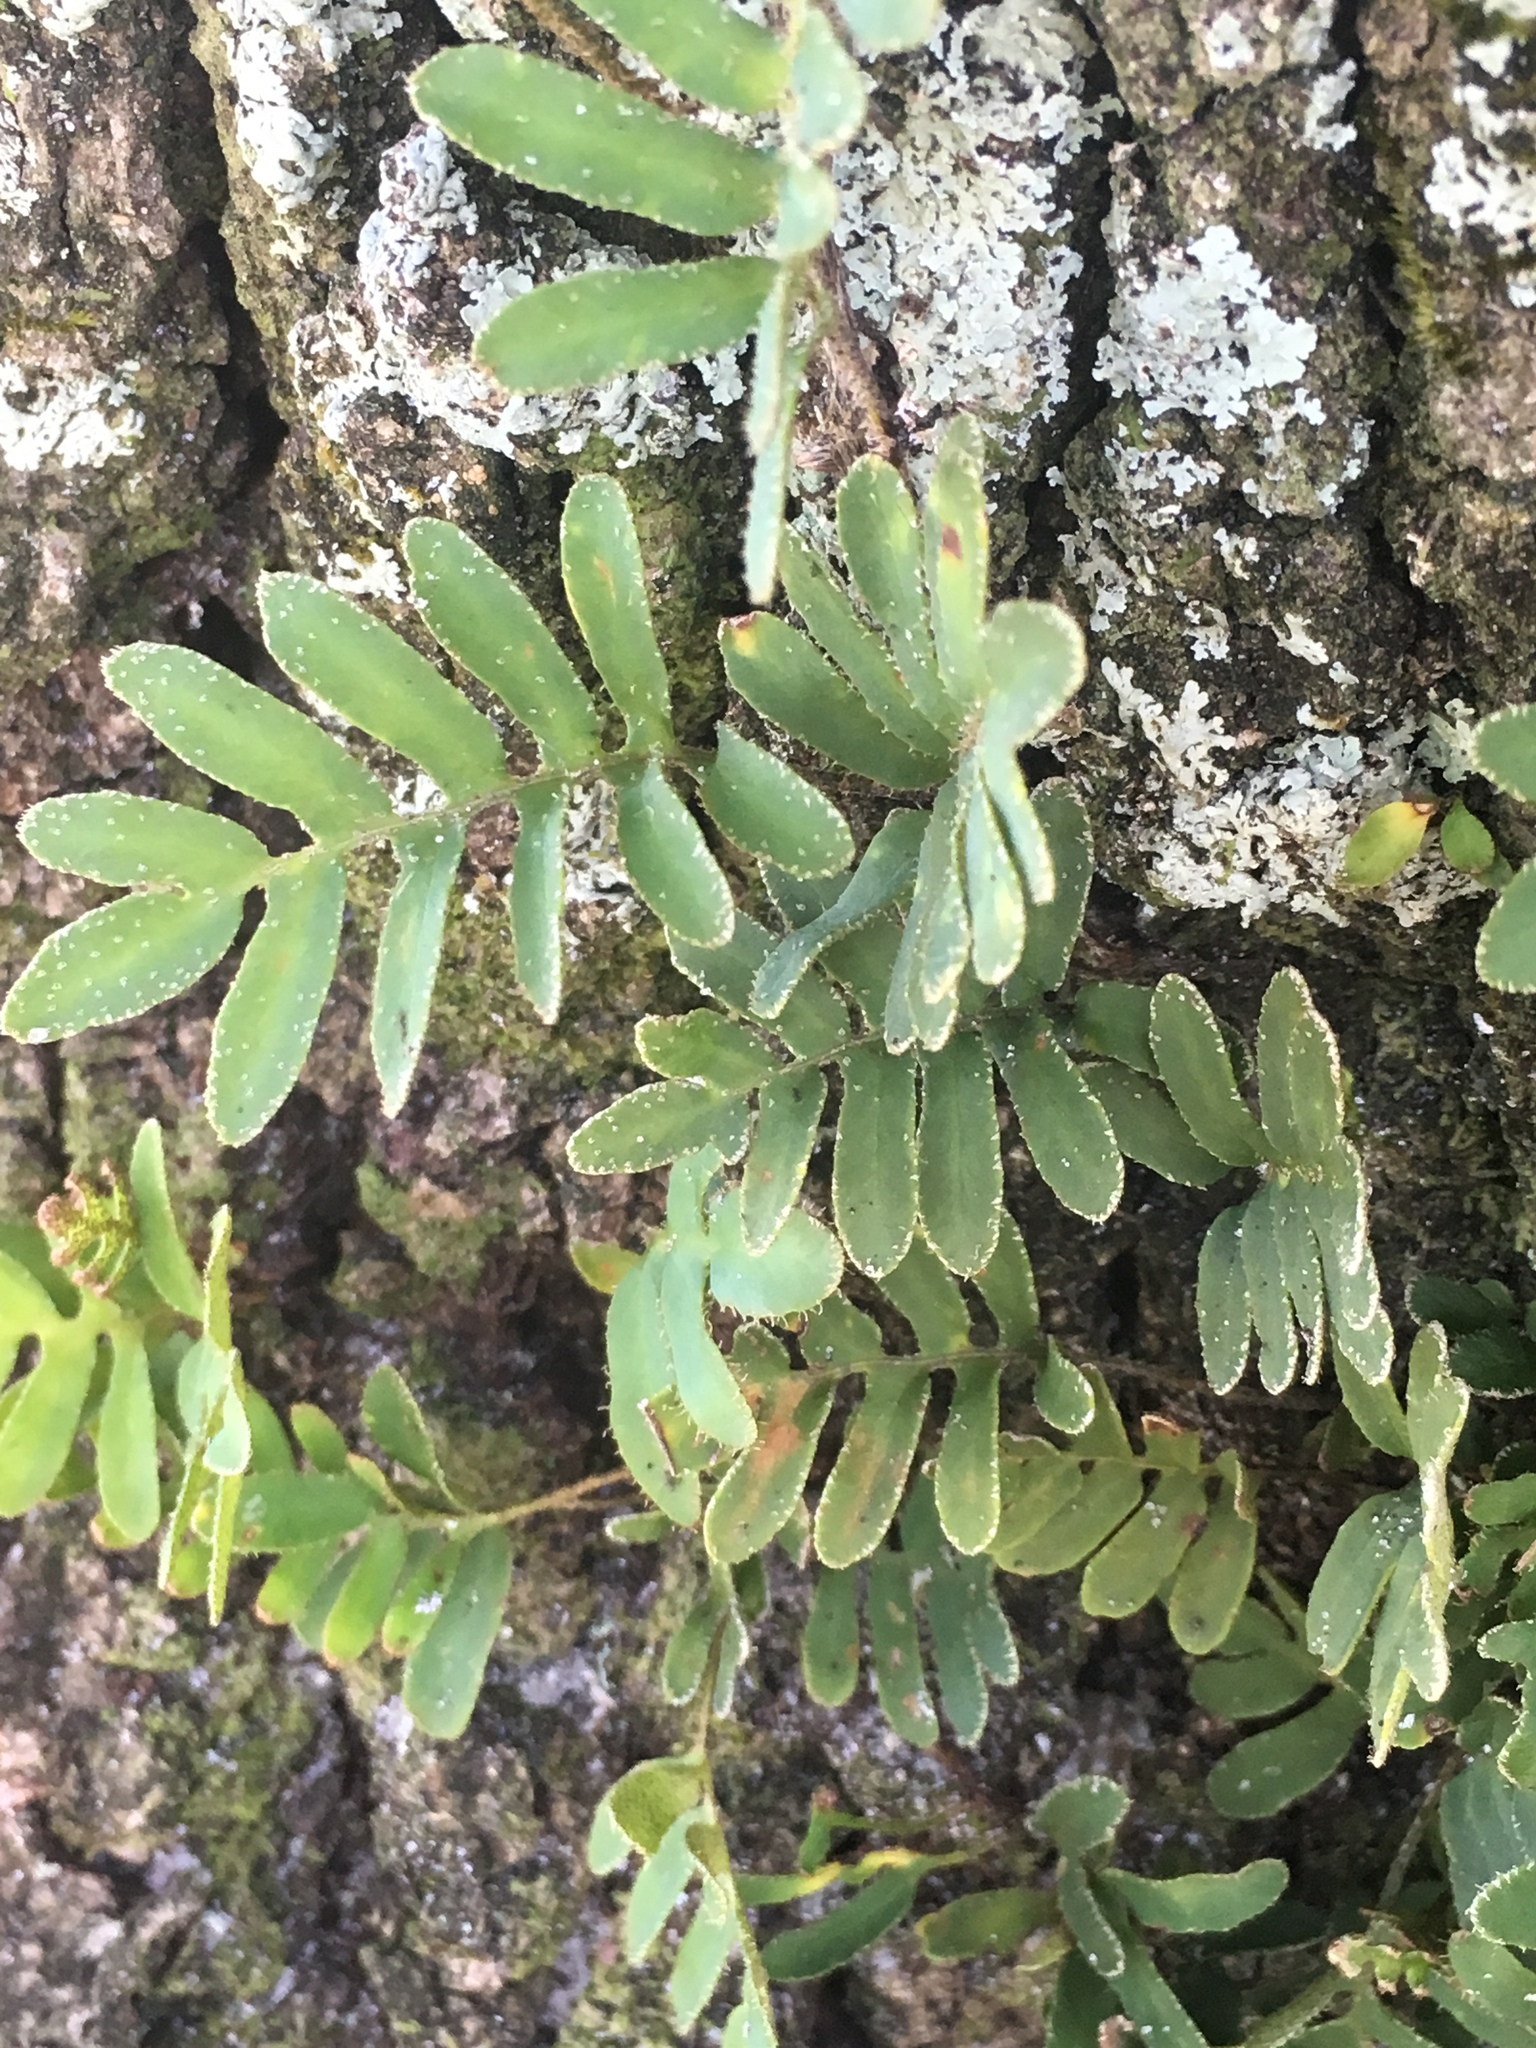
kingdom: Plantae
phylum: Tracheophyta
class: Polypodiopsida
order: Polypodiales
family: Polypodiaceae
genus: Pleopeltis
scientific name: Pleopeltis michauxiana
